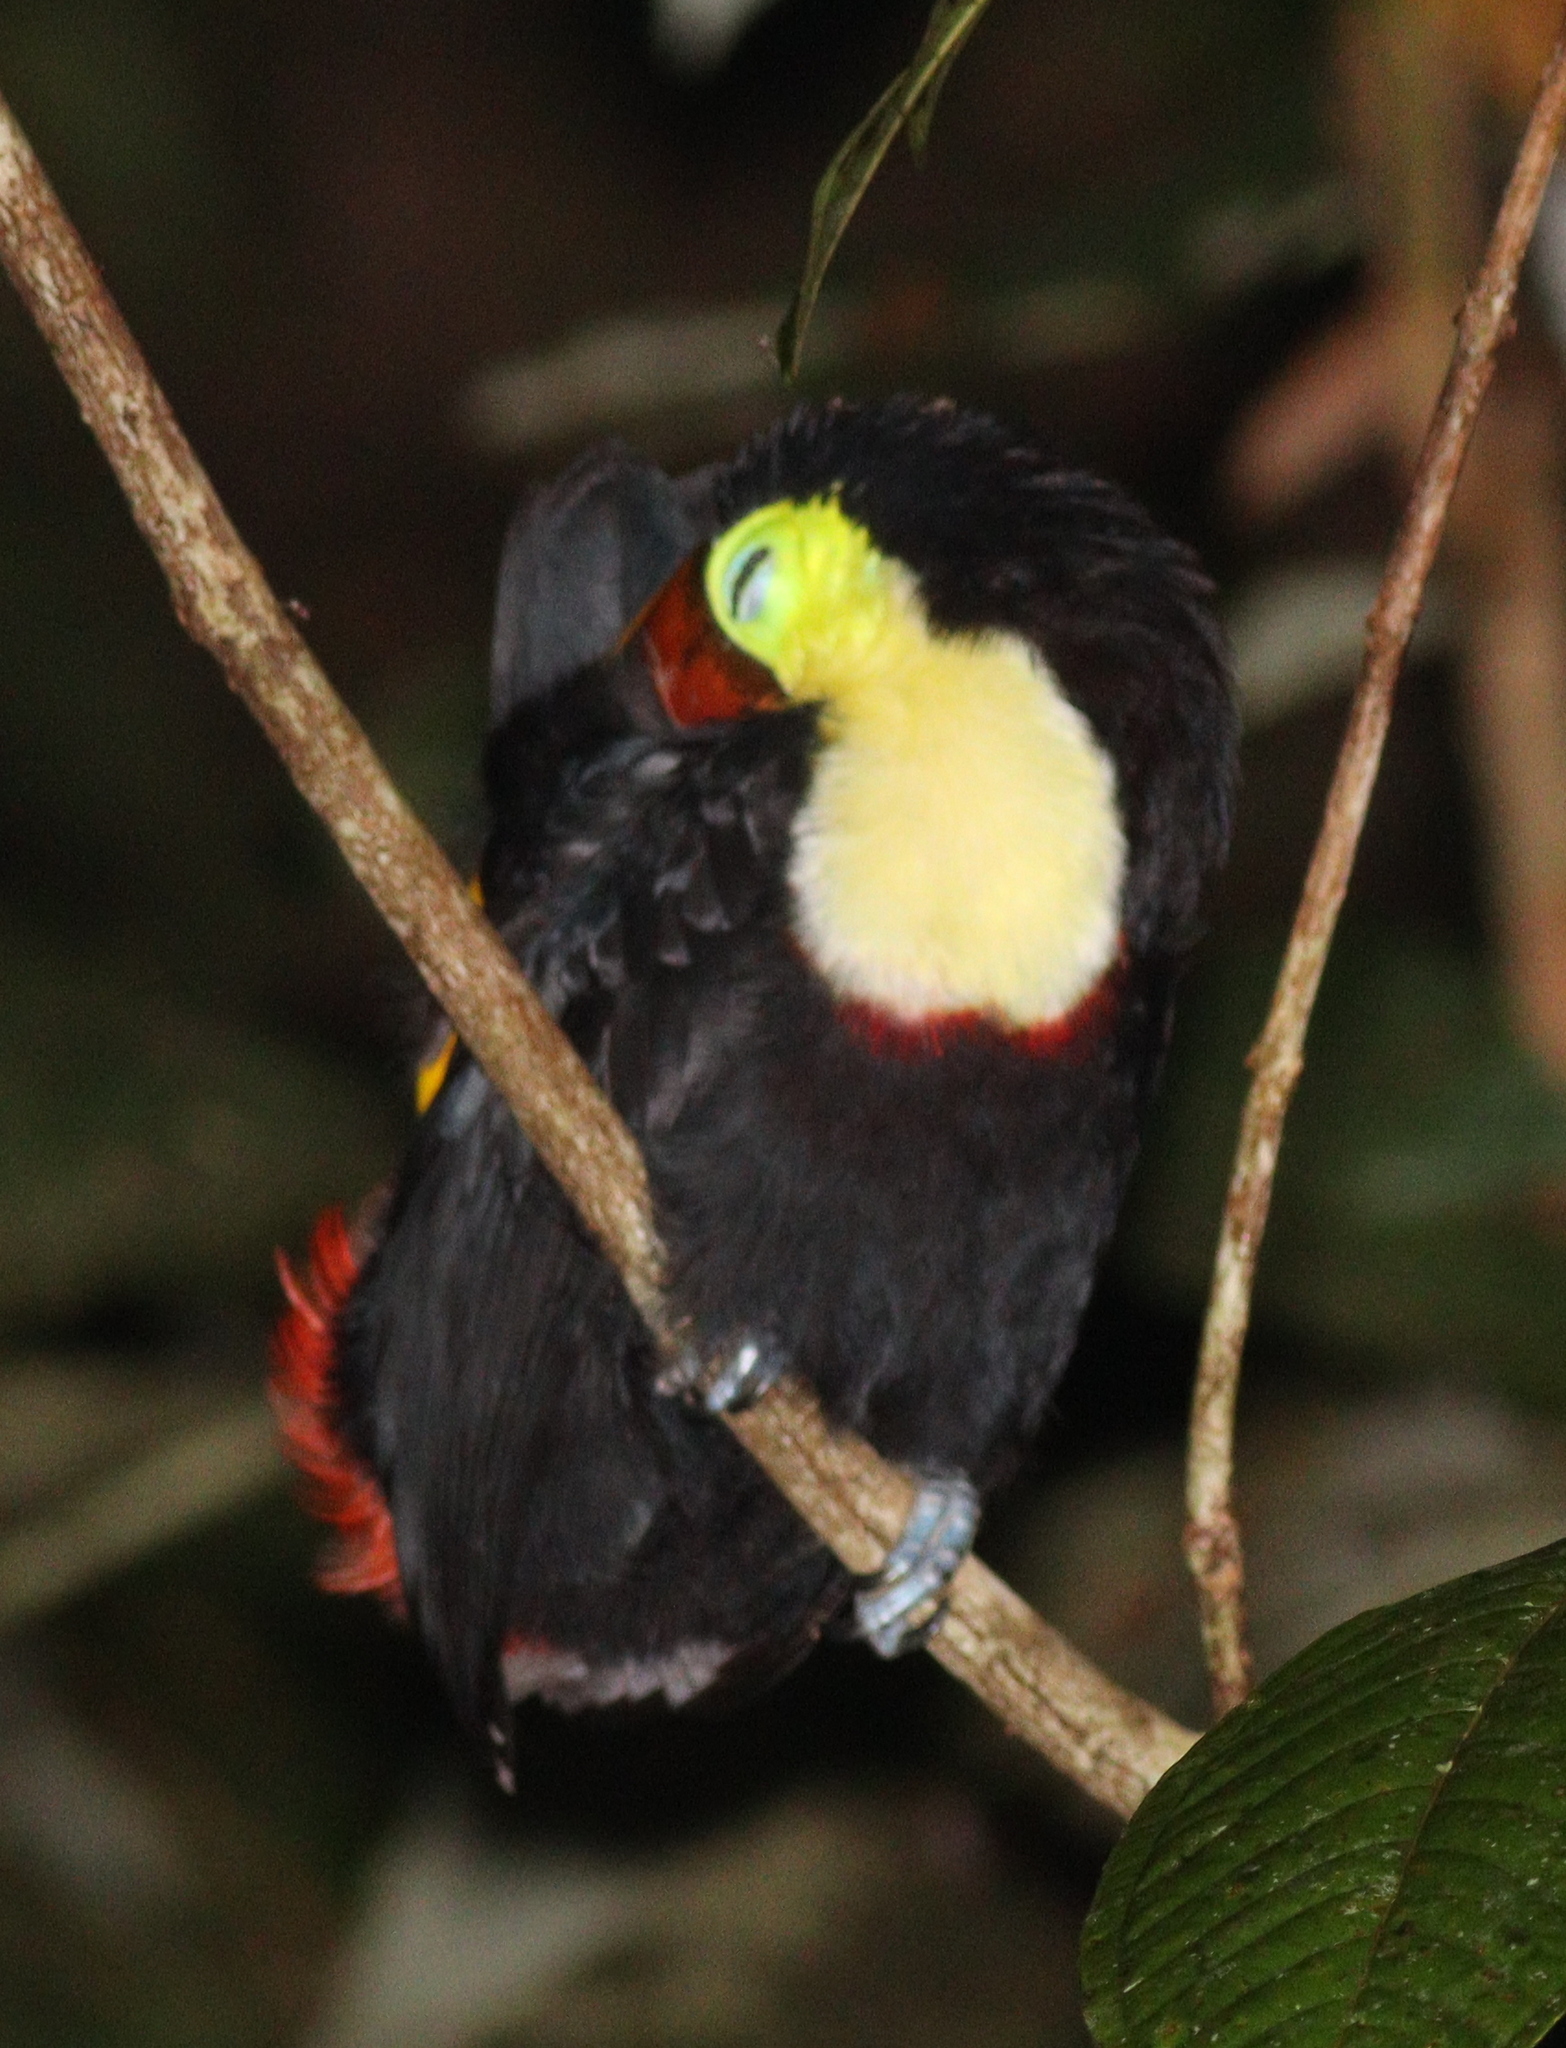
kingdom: Animalia
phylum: Chordata
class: Aves
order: Piciformes
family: Ramphastidae
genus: Ramphastos
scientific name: Ramphastos ambiguus
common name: Yellow-throated toucan
